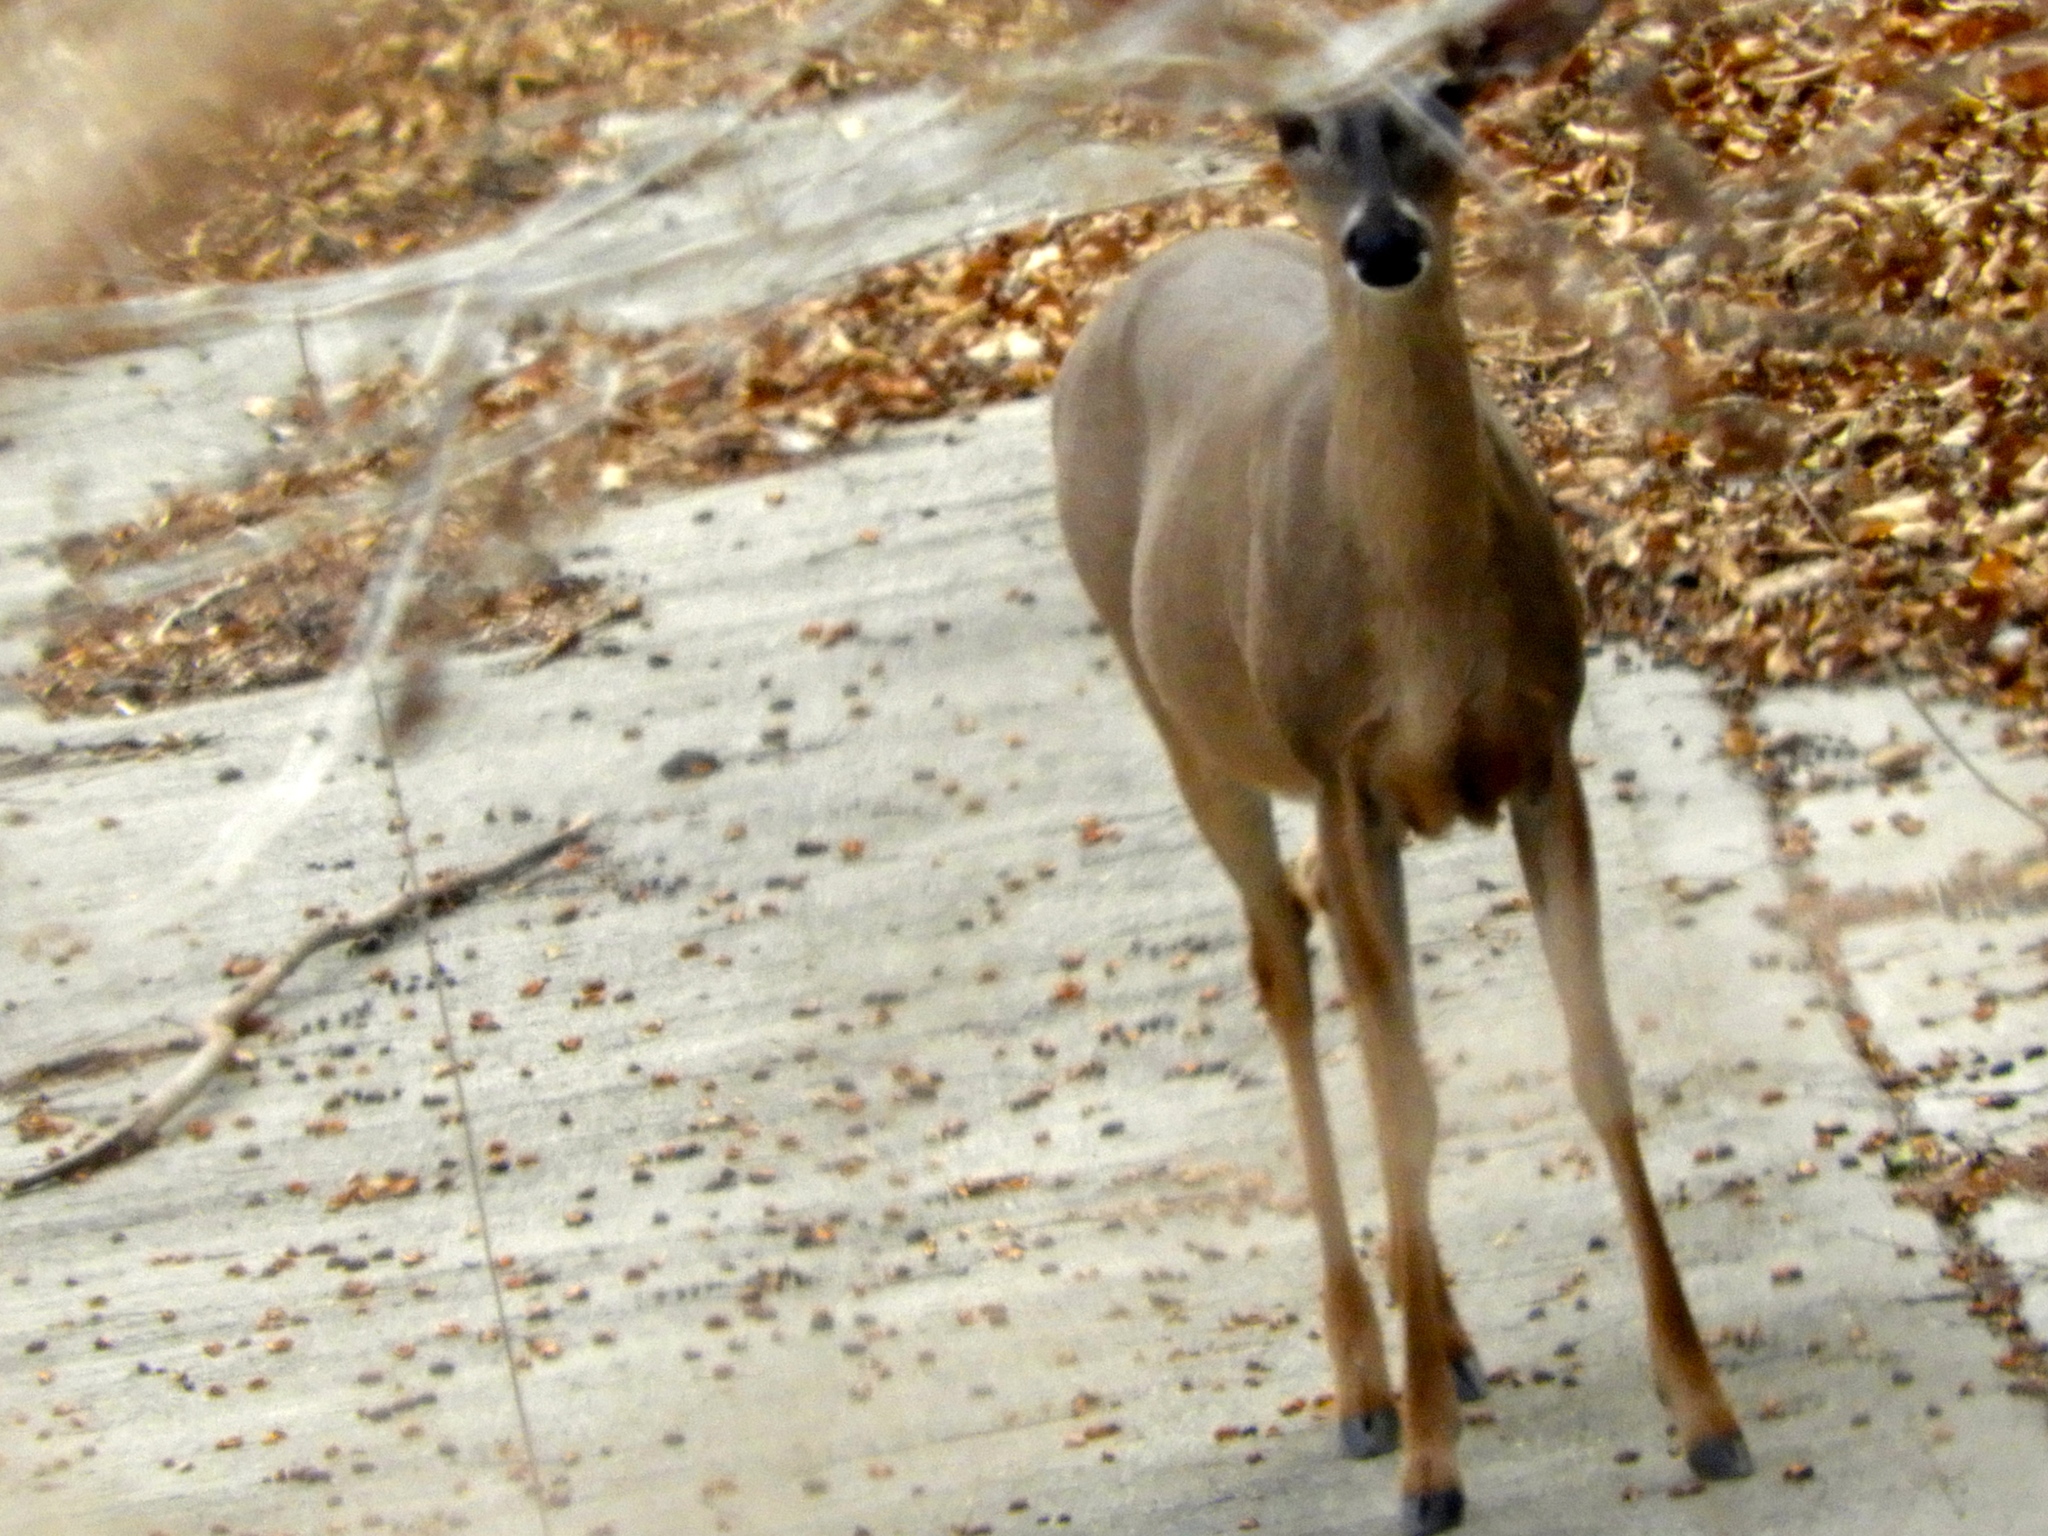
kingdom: Animalia
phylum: Chordata
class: Mammalia
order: Artiodactyla
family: Cervidae
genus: Odocoileus
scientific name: Odocoileus virginianus
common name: White-tailed deer
